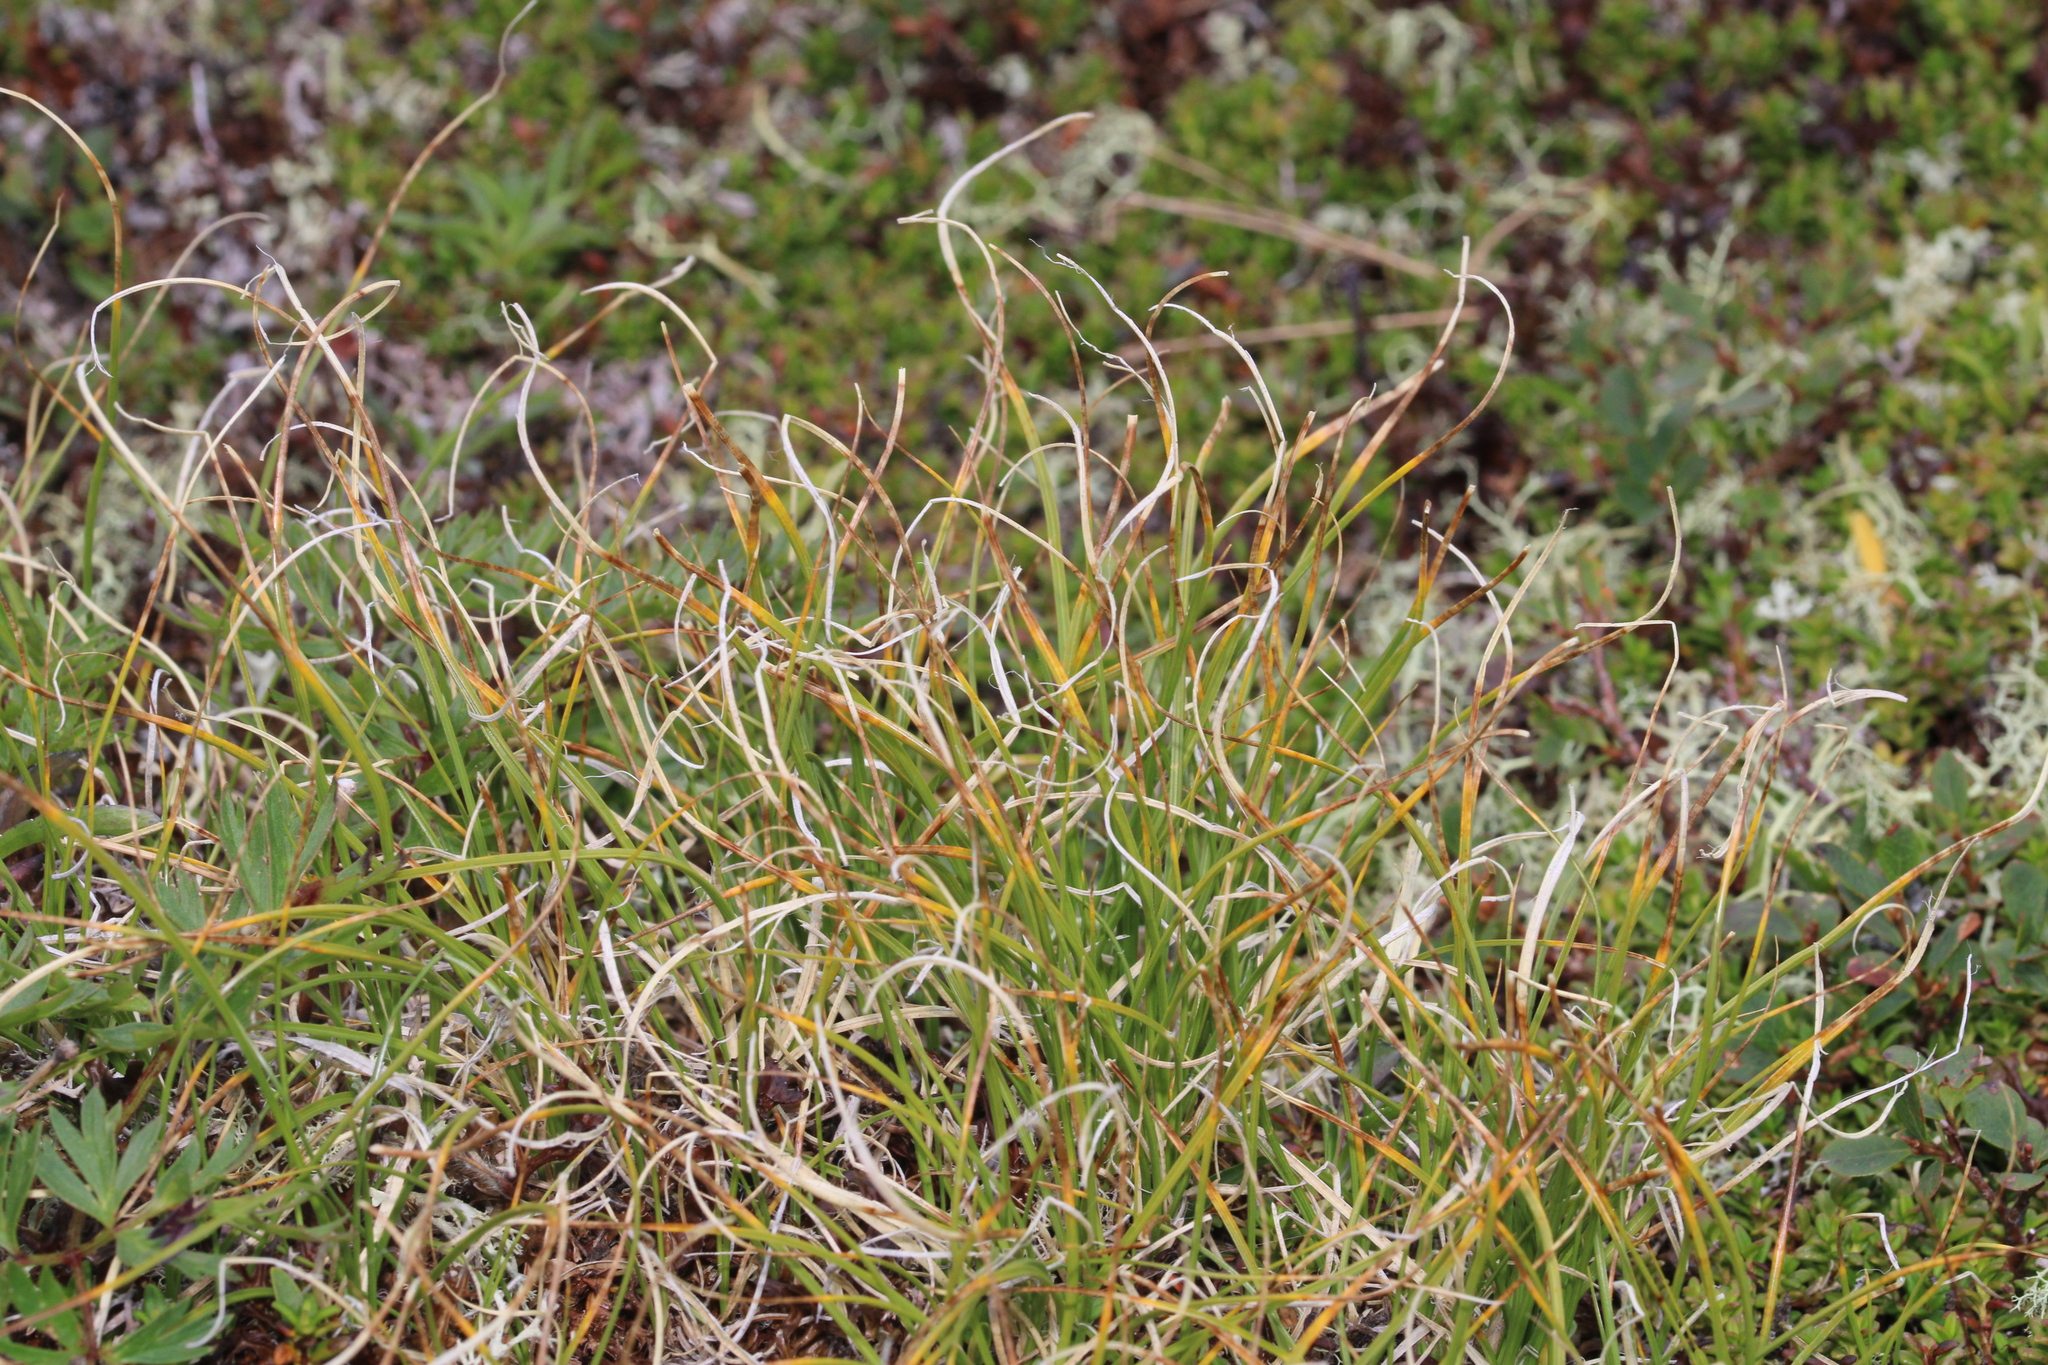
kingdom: Plantae
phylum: Tracheophyta
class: Liliopsida
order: Poales
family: Cyperaceae
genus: Carex
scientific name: Carex curvula
